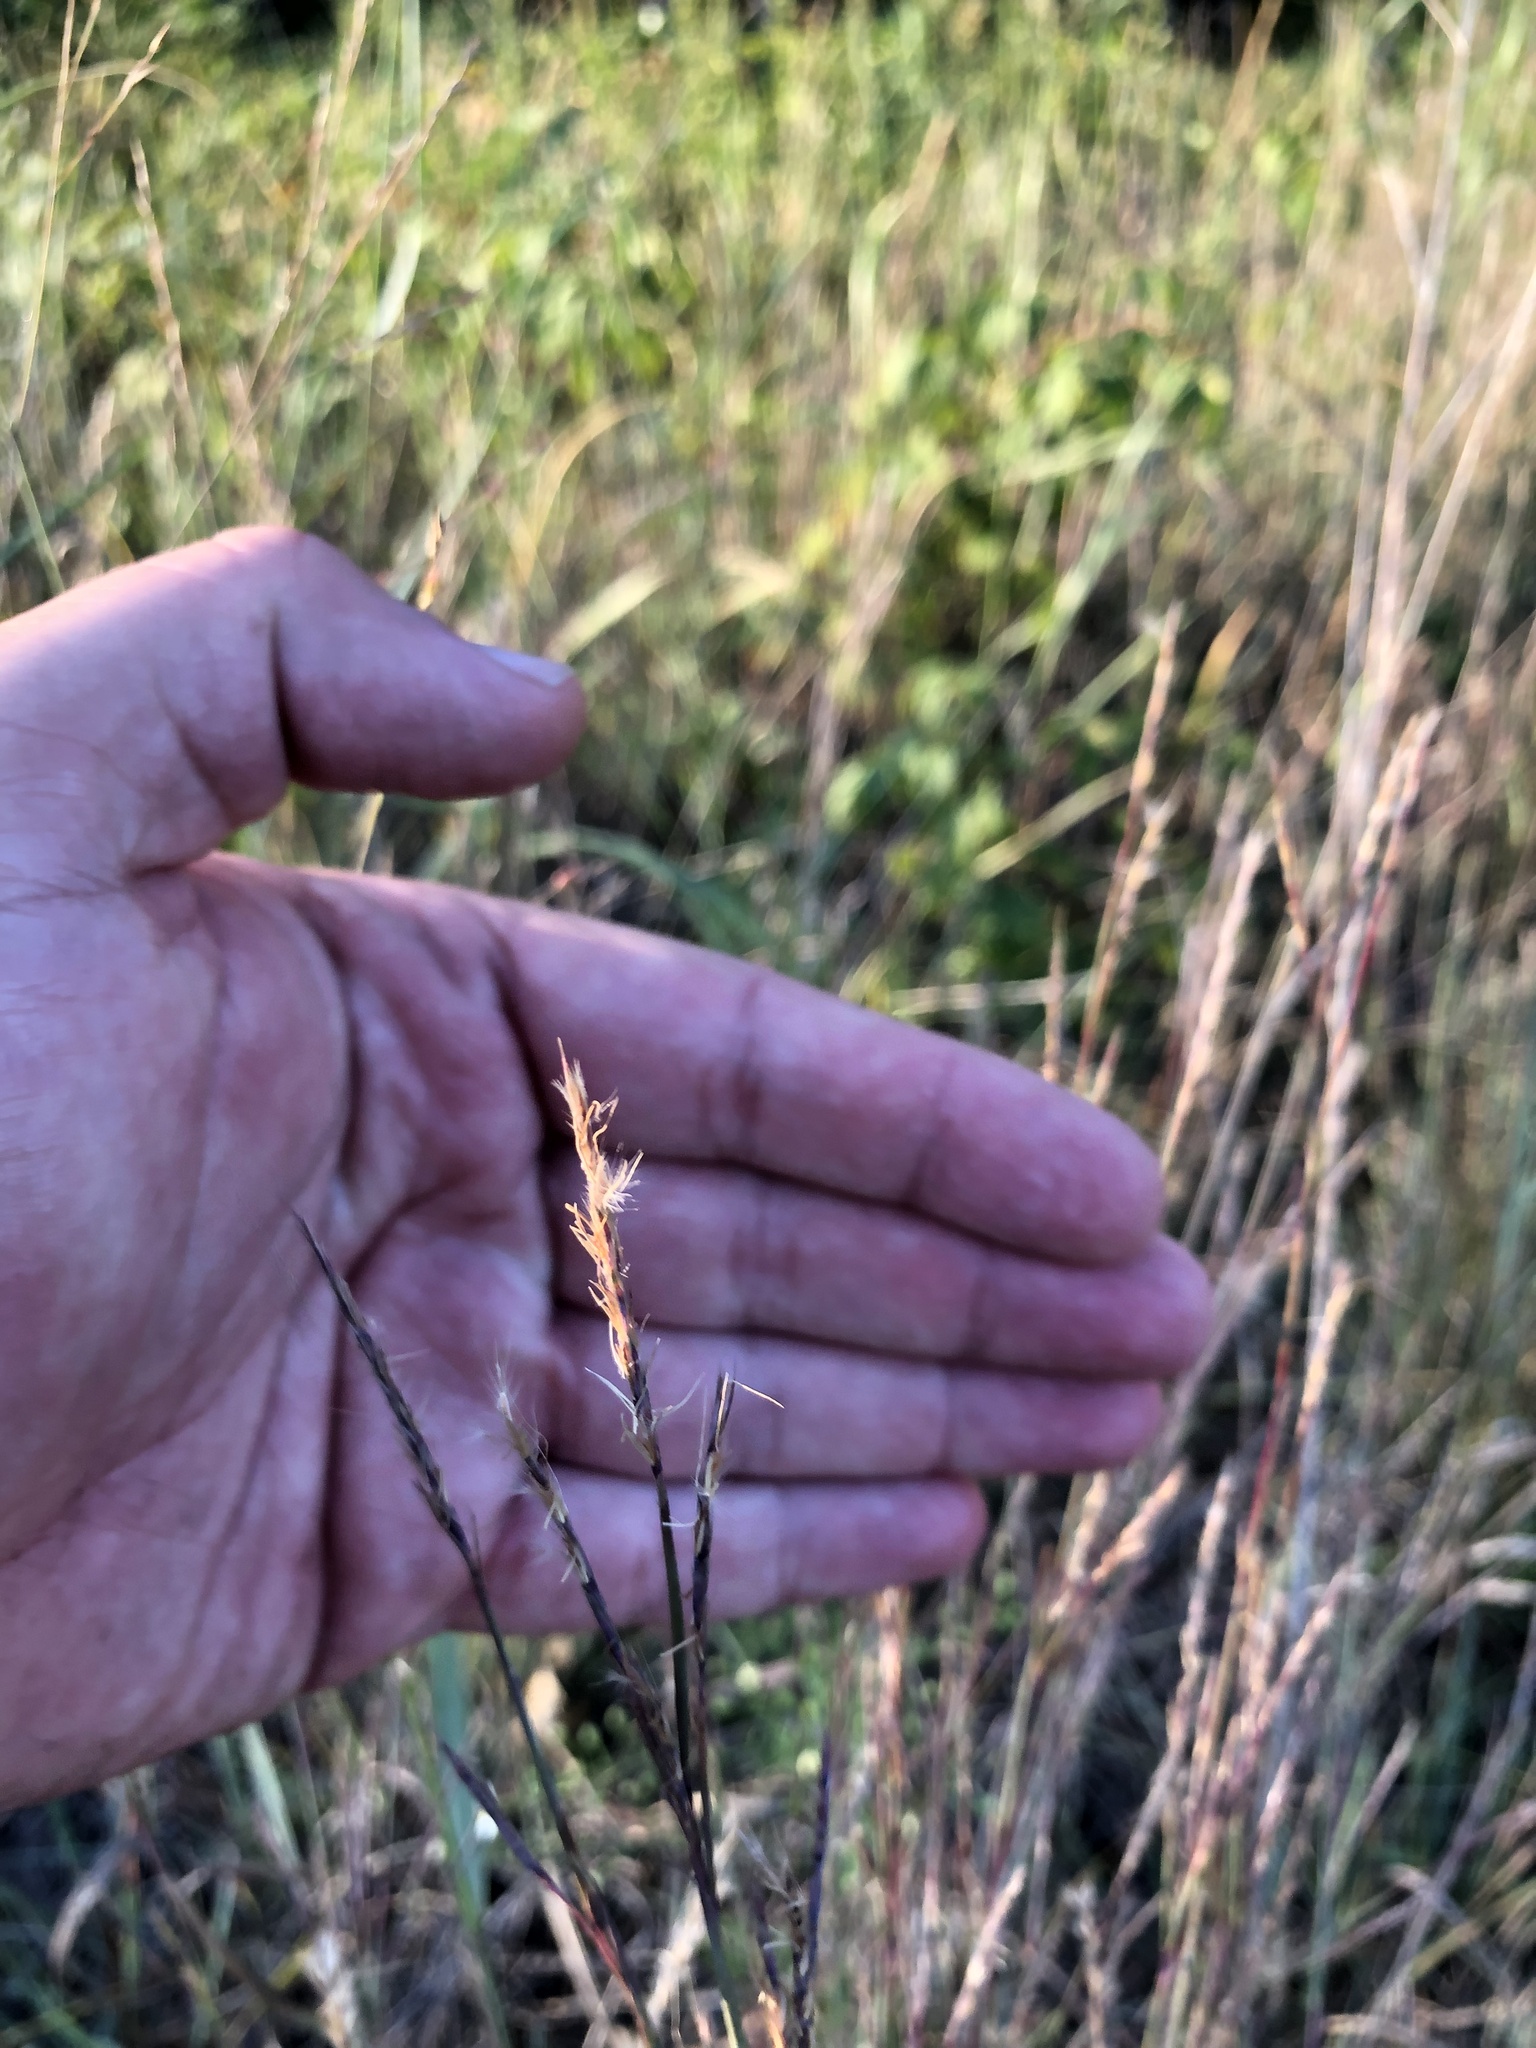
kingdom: Plantae
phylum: Tracheophyta
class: Liliopsida
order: Poales
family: Poaceae
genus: Andropogon
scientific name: Andropogon gerardi
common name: Big bluestem
